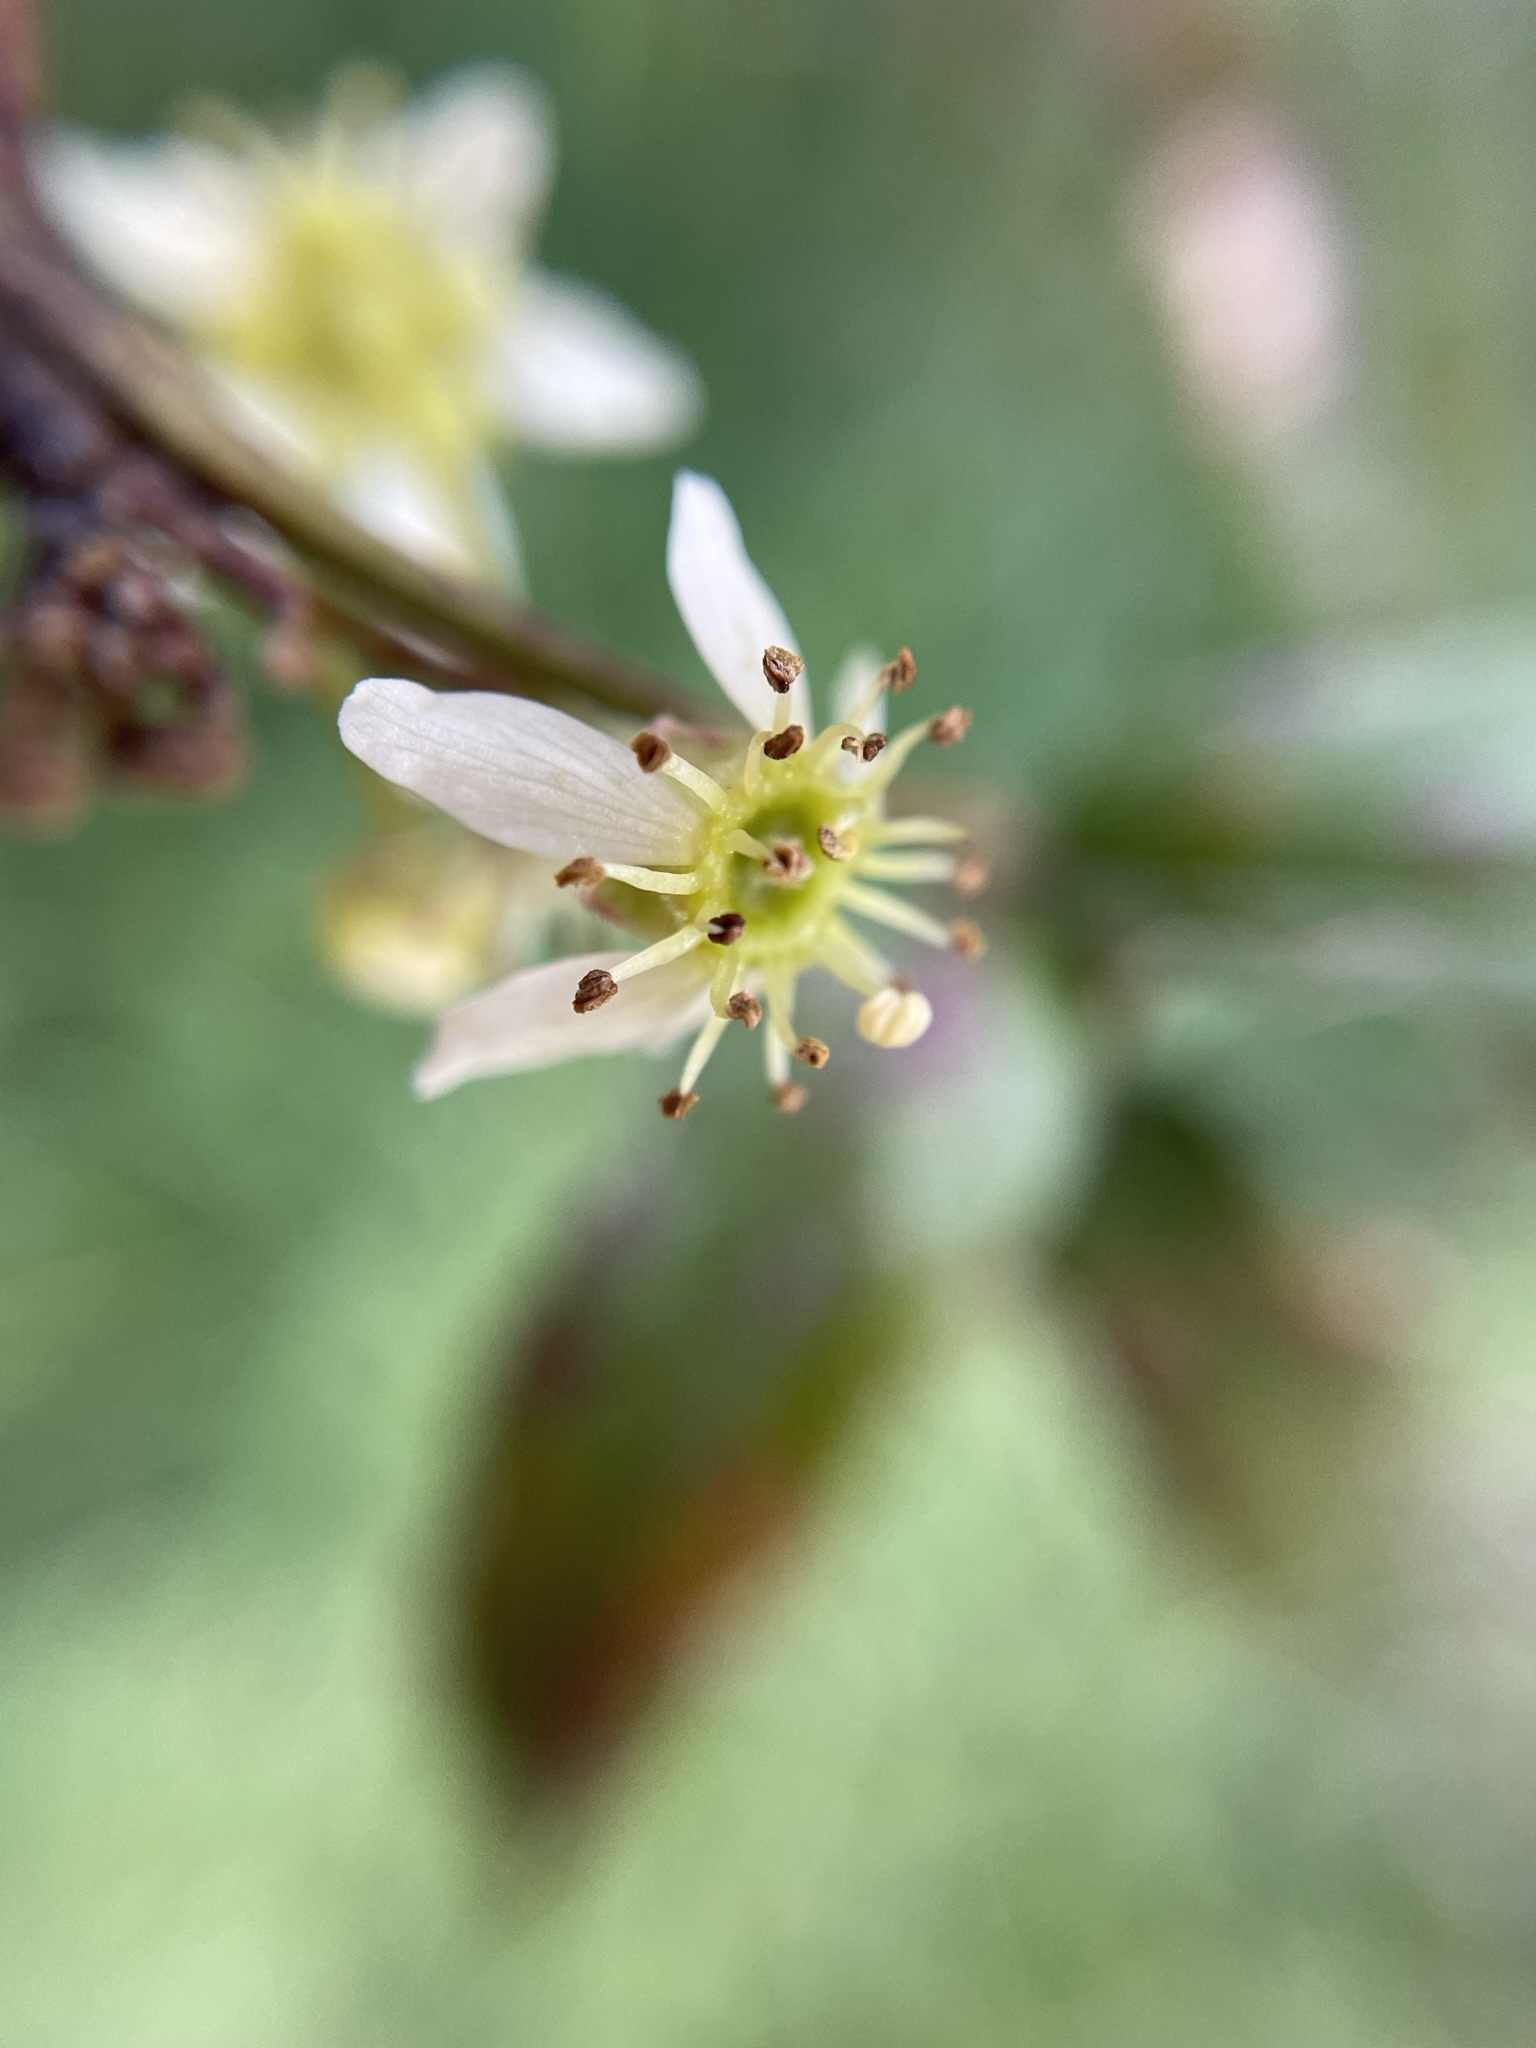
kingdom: Plantae
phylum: Tracheophyta
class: Magnoliopsida
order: Rosales
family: Rosaceae
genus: Rubus
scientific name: Rubus schmidelioides
